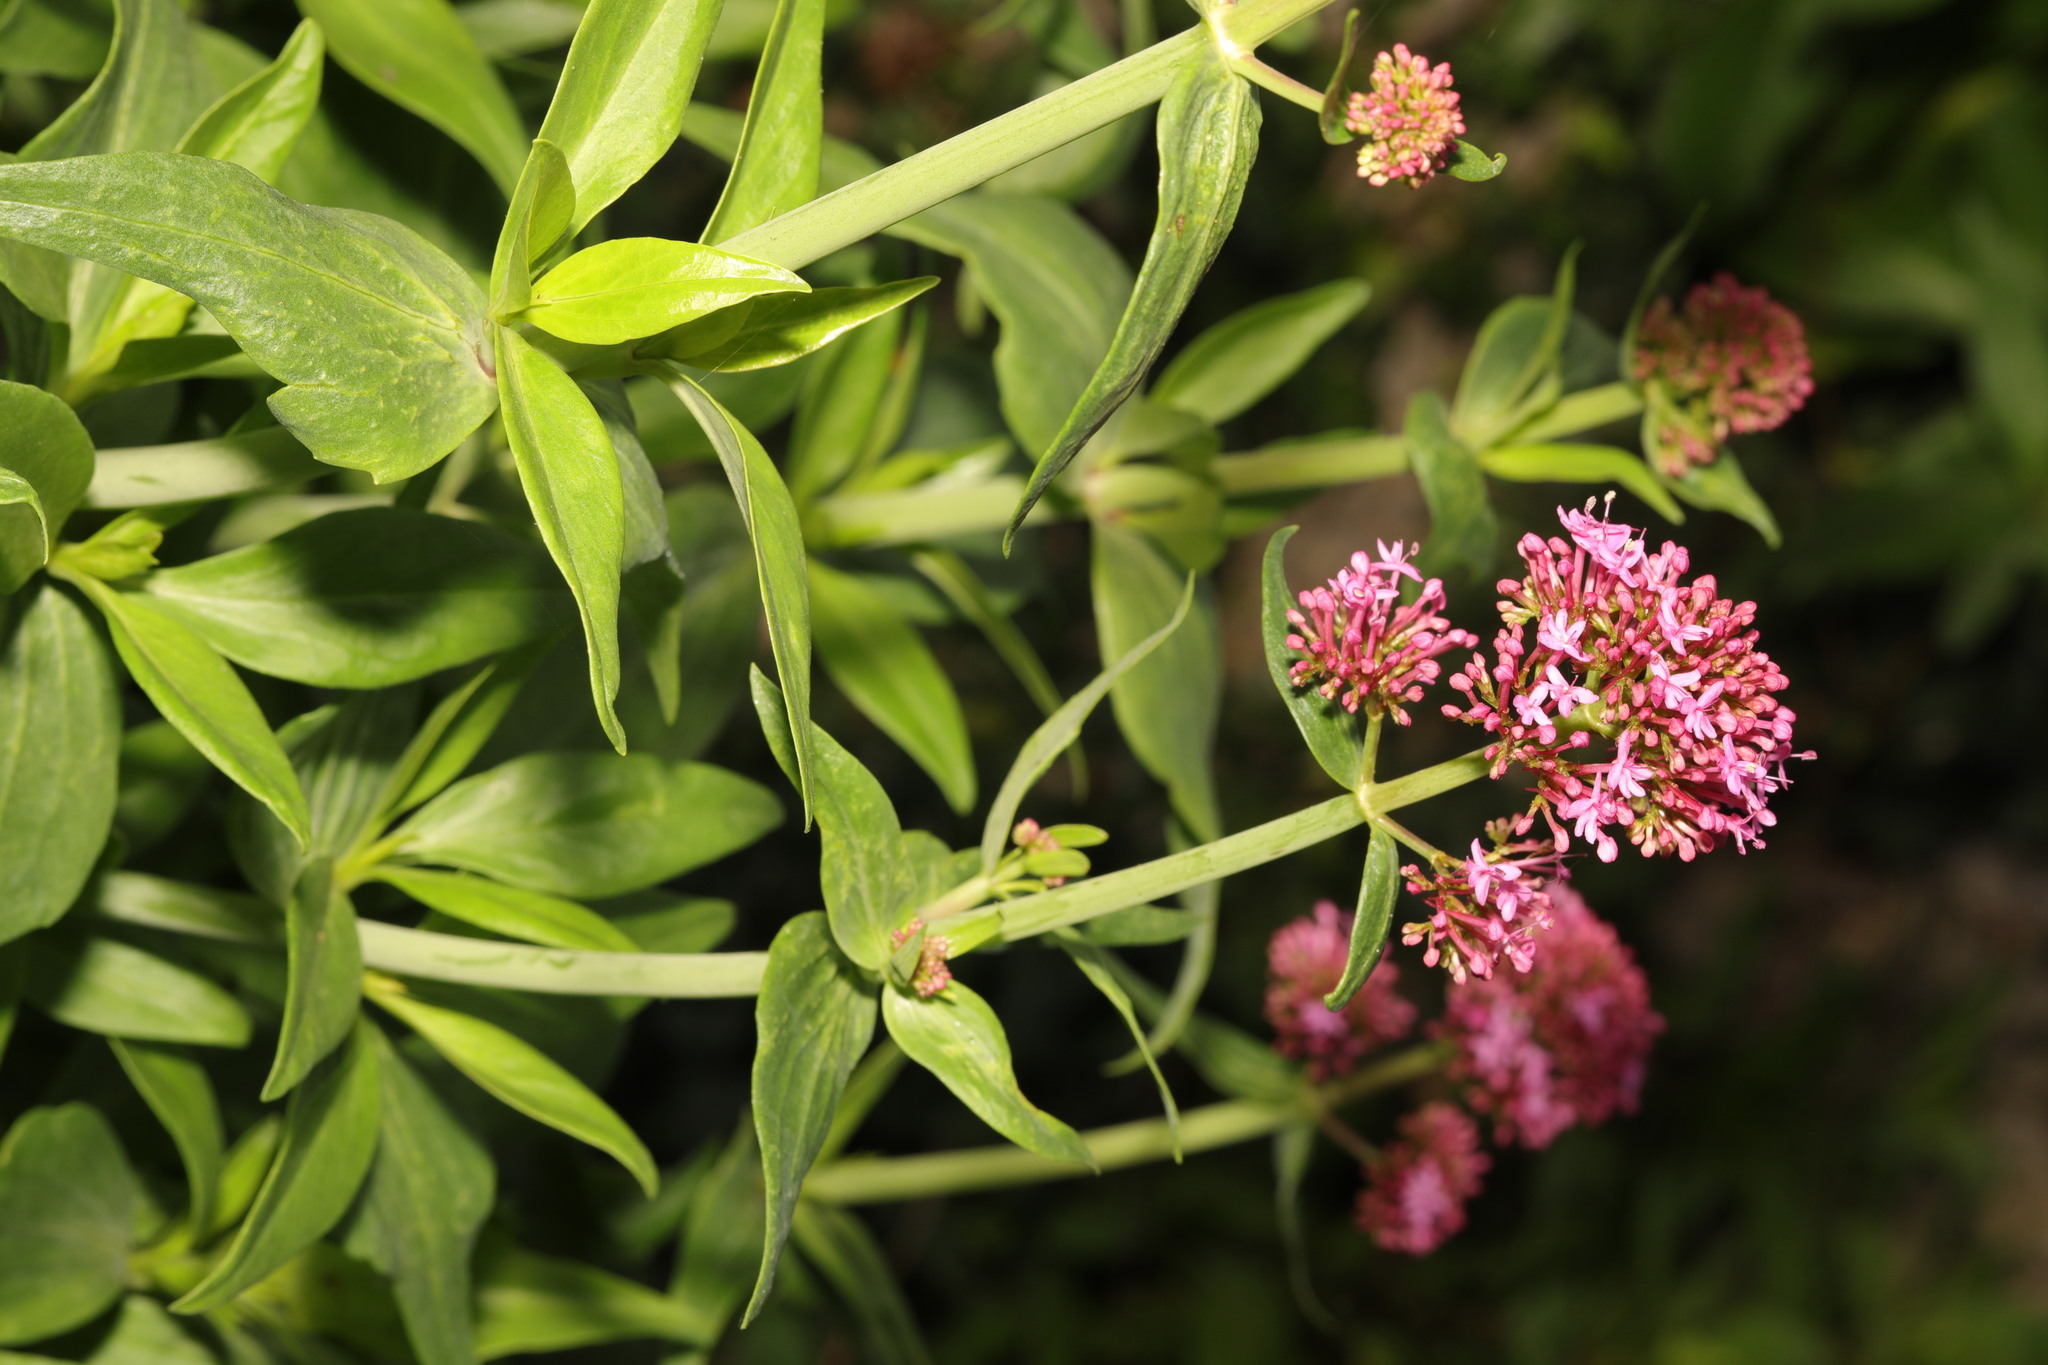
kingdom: Plantae
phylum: Tracheophyta
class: Magnoliopsida
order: Dipsacales
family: Caprifoliaceae
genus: Centranthus
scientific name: Centranthus ruber
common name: Red valerian
